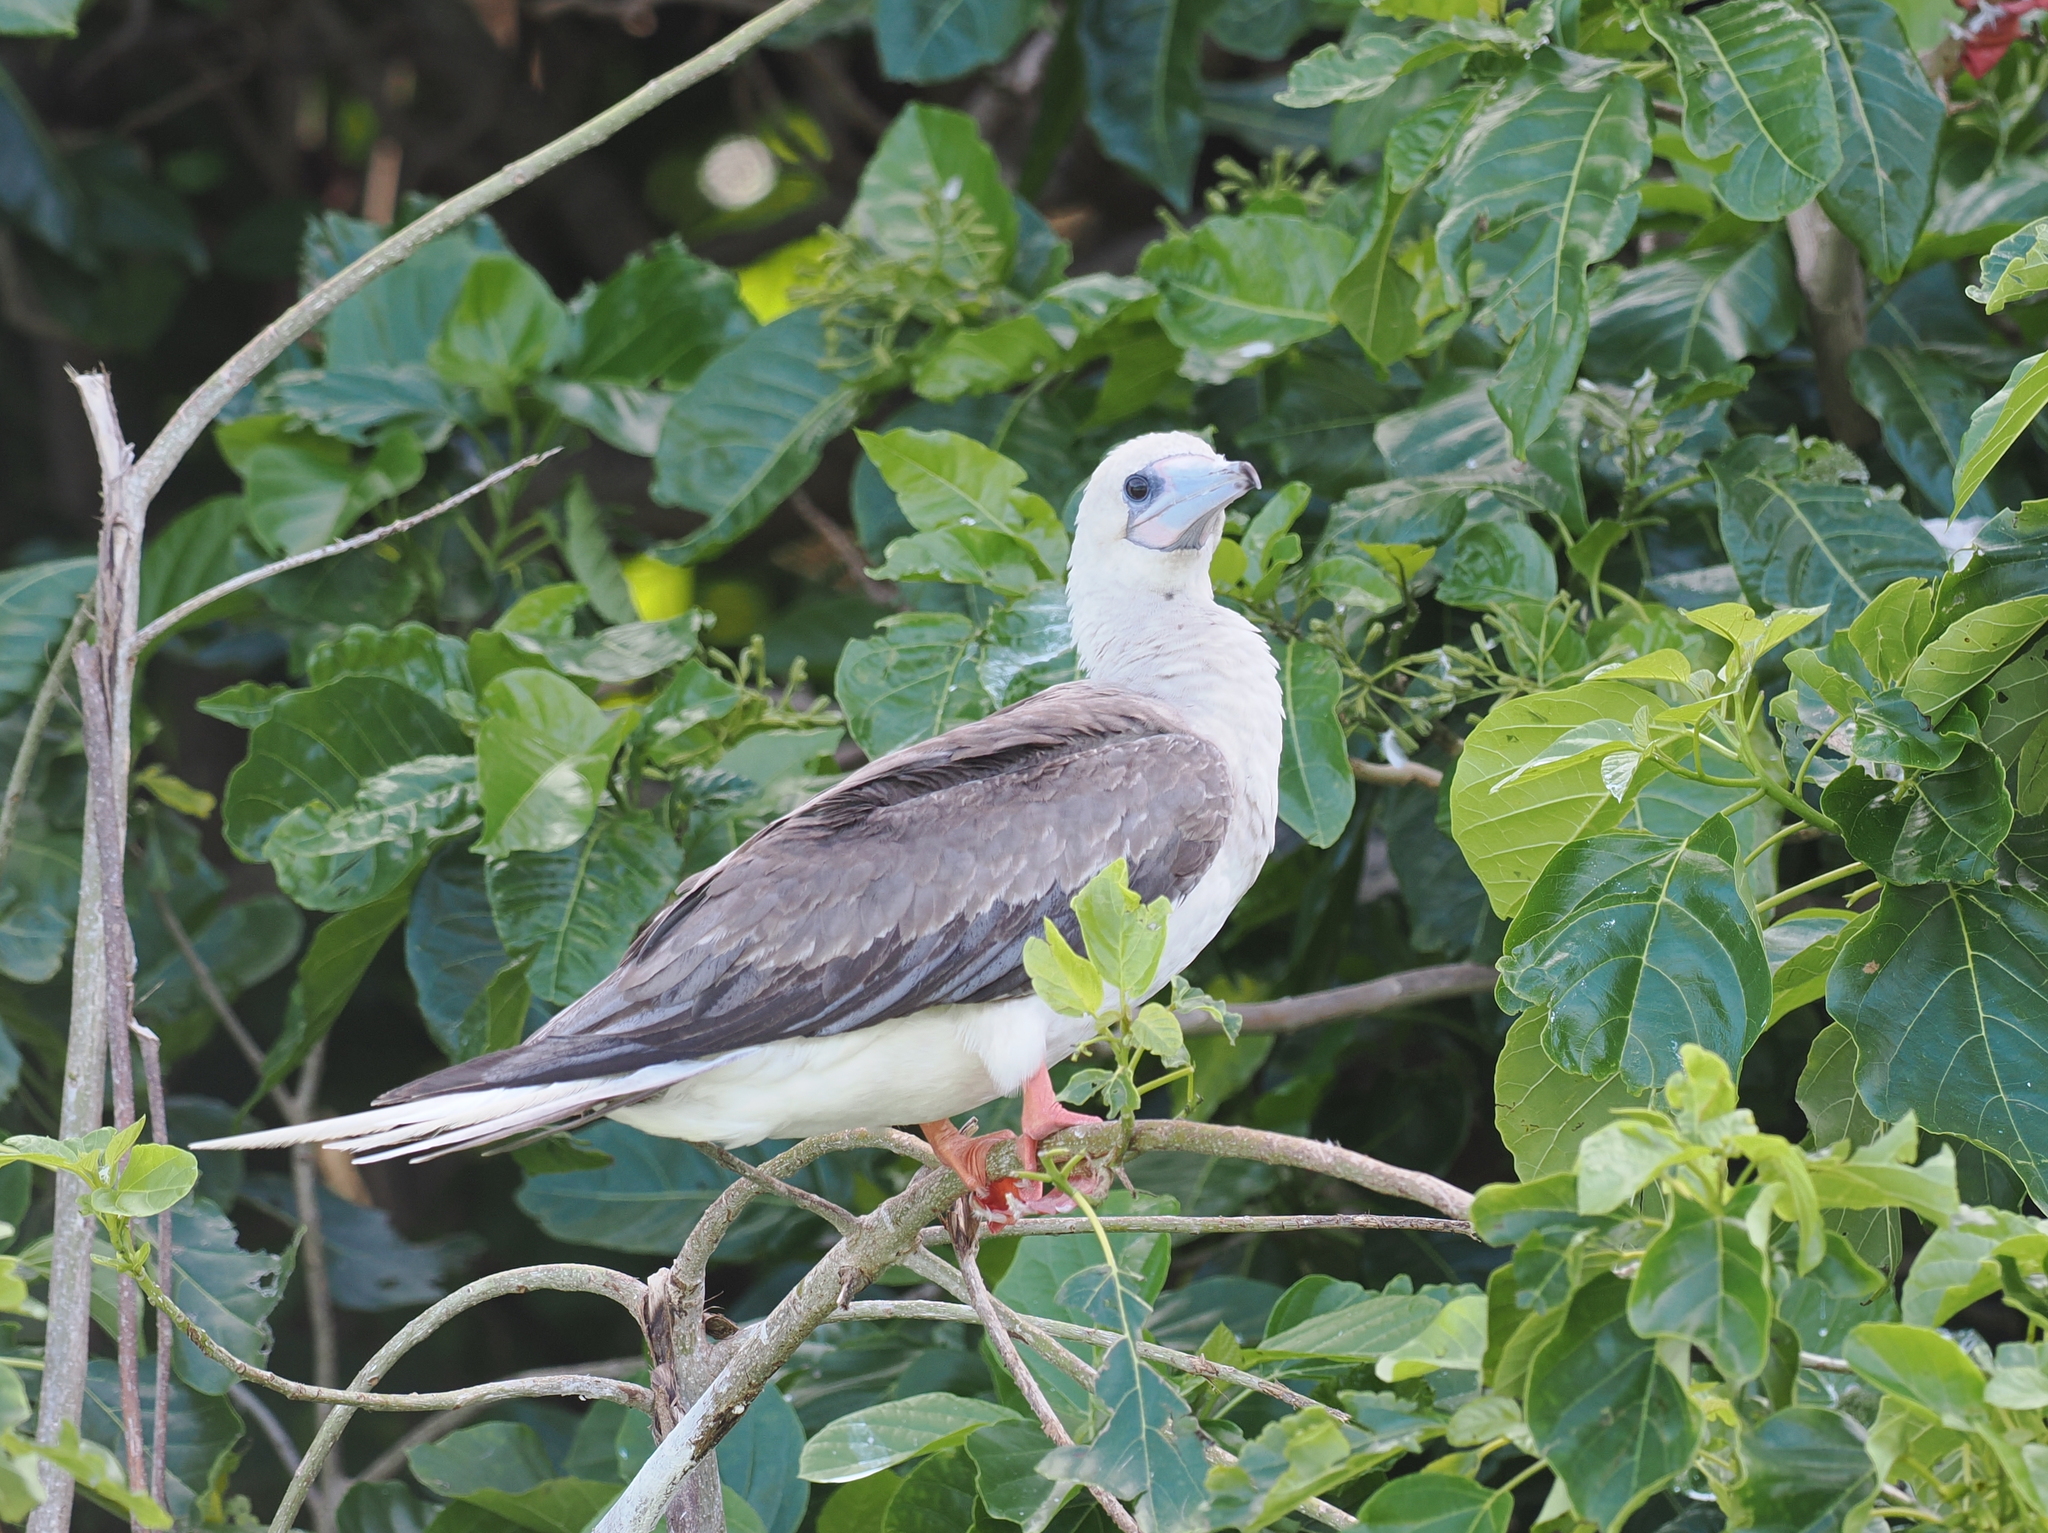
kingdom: Animalia
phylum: Chordata
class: Aves
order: Suliformes
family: Sulidae
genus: Sula
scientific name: Sula sula
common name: Red-footed booby
